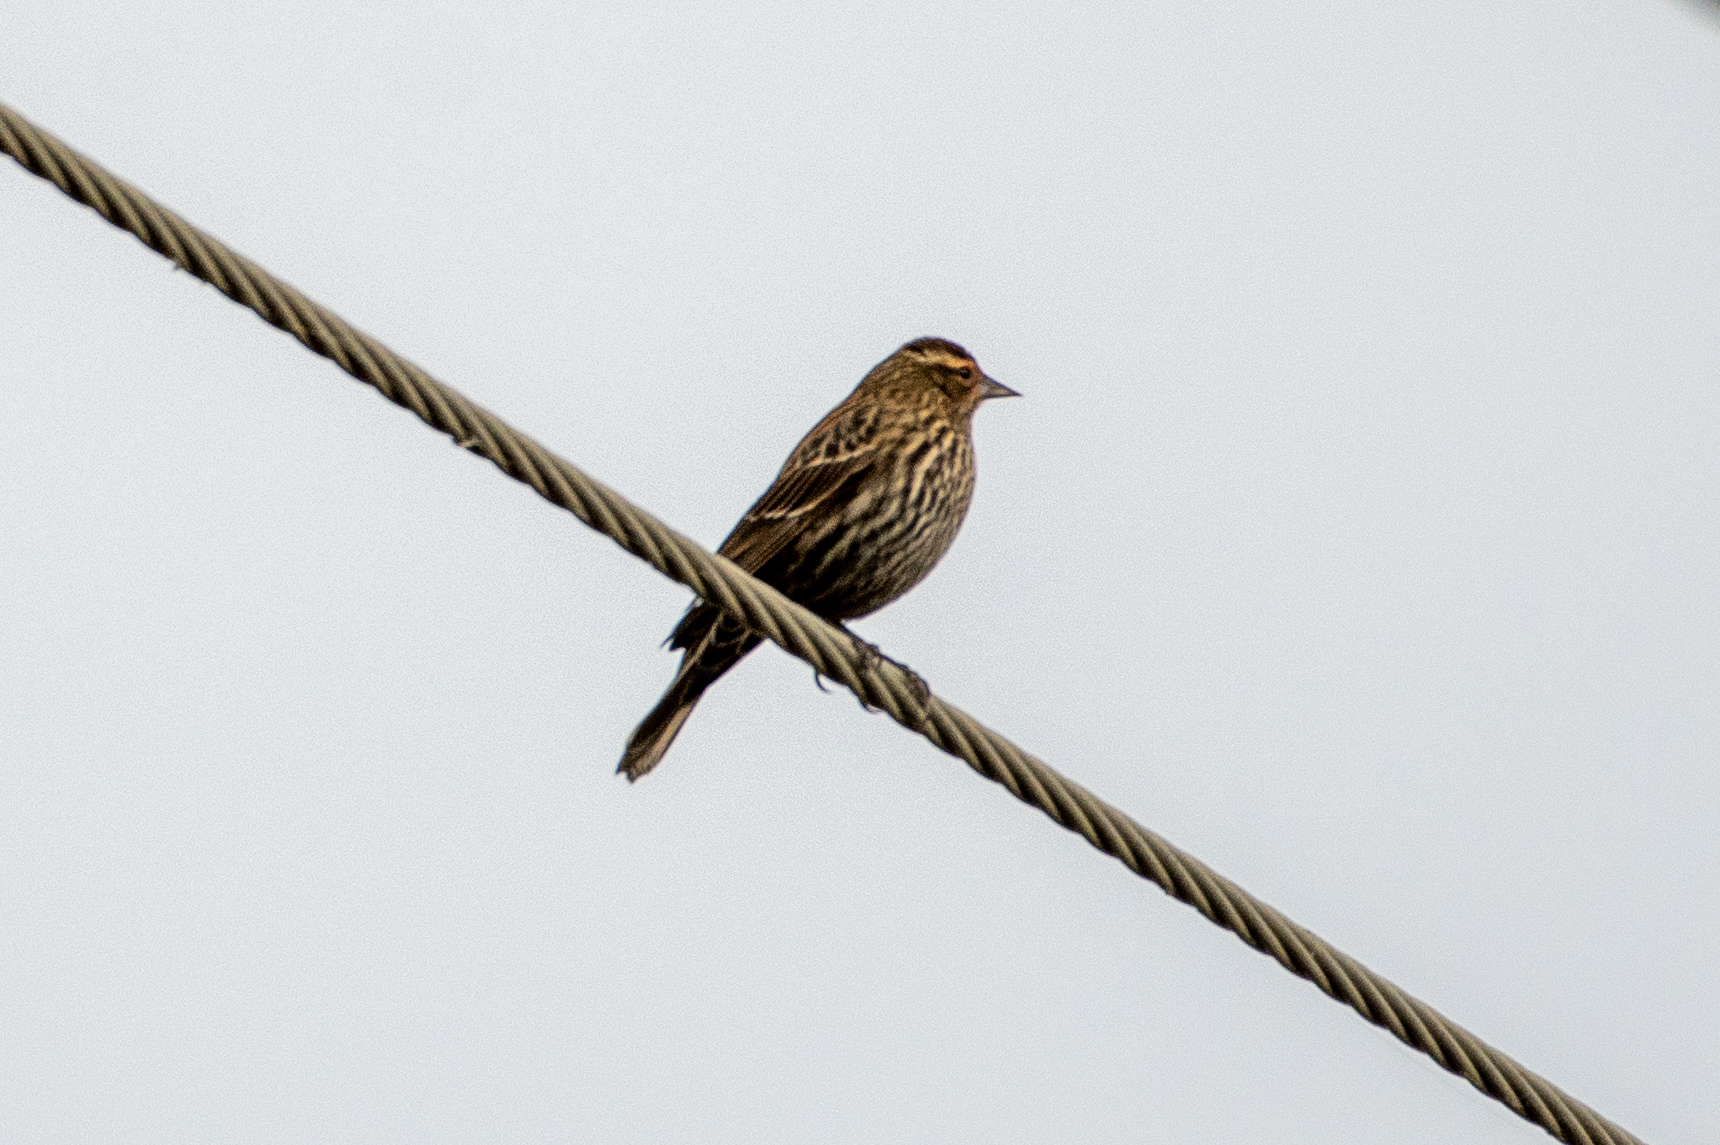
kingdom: Animalia
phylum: Chordata
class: Aves
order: Passeriformes
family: Icteridae
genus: Agelaius
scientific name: Agelaius phoeniceus
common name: Red-winged blackbird
